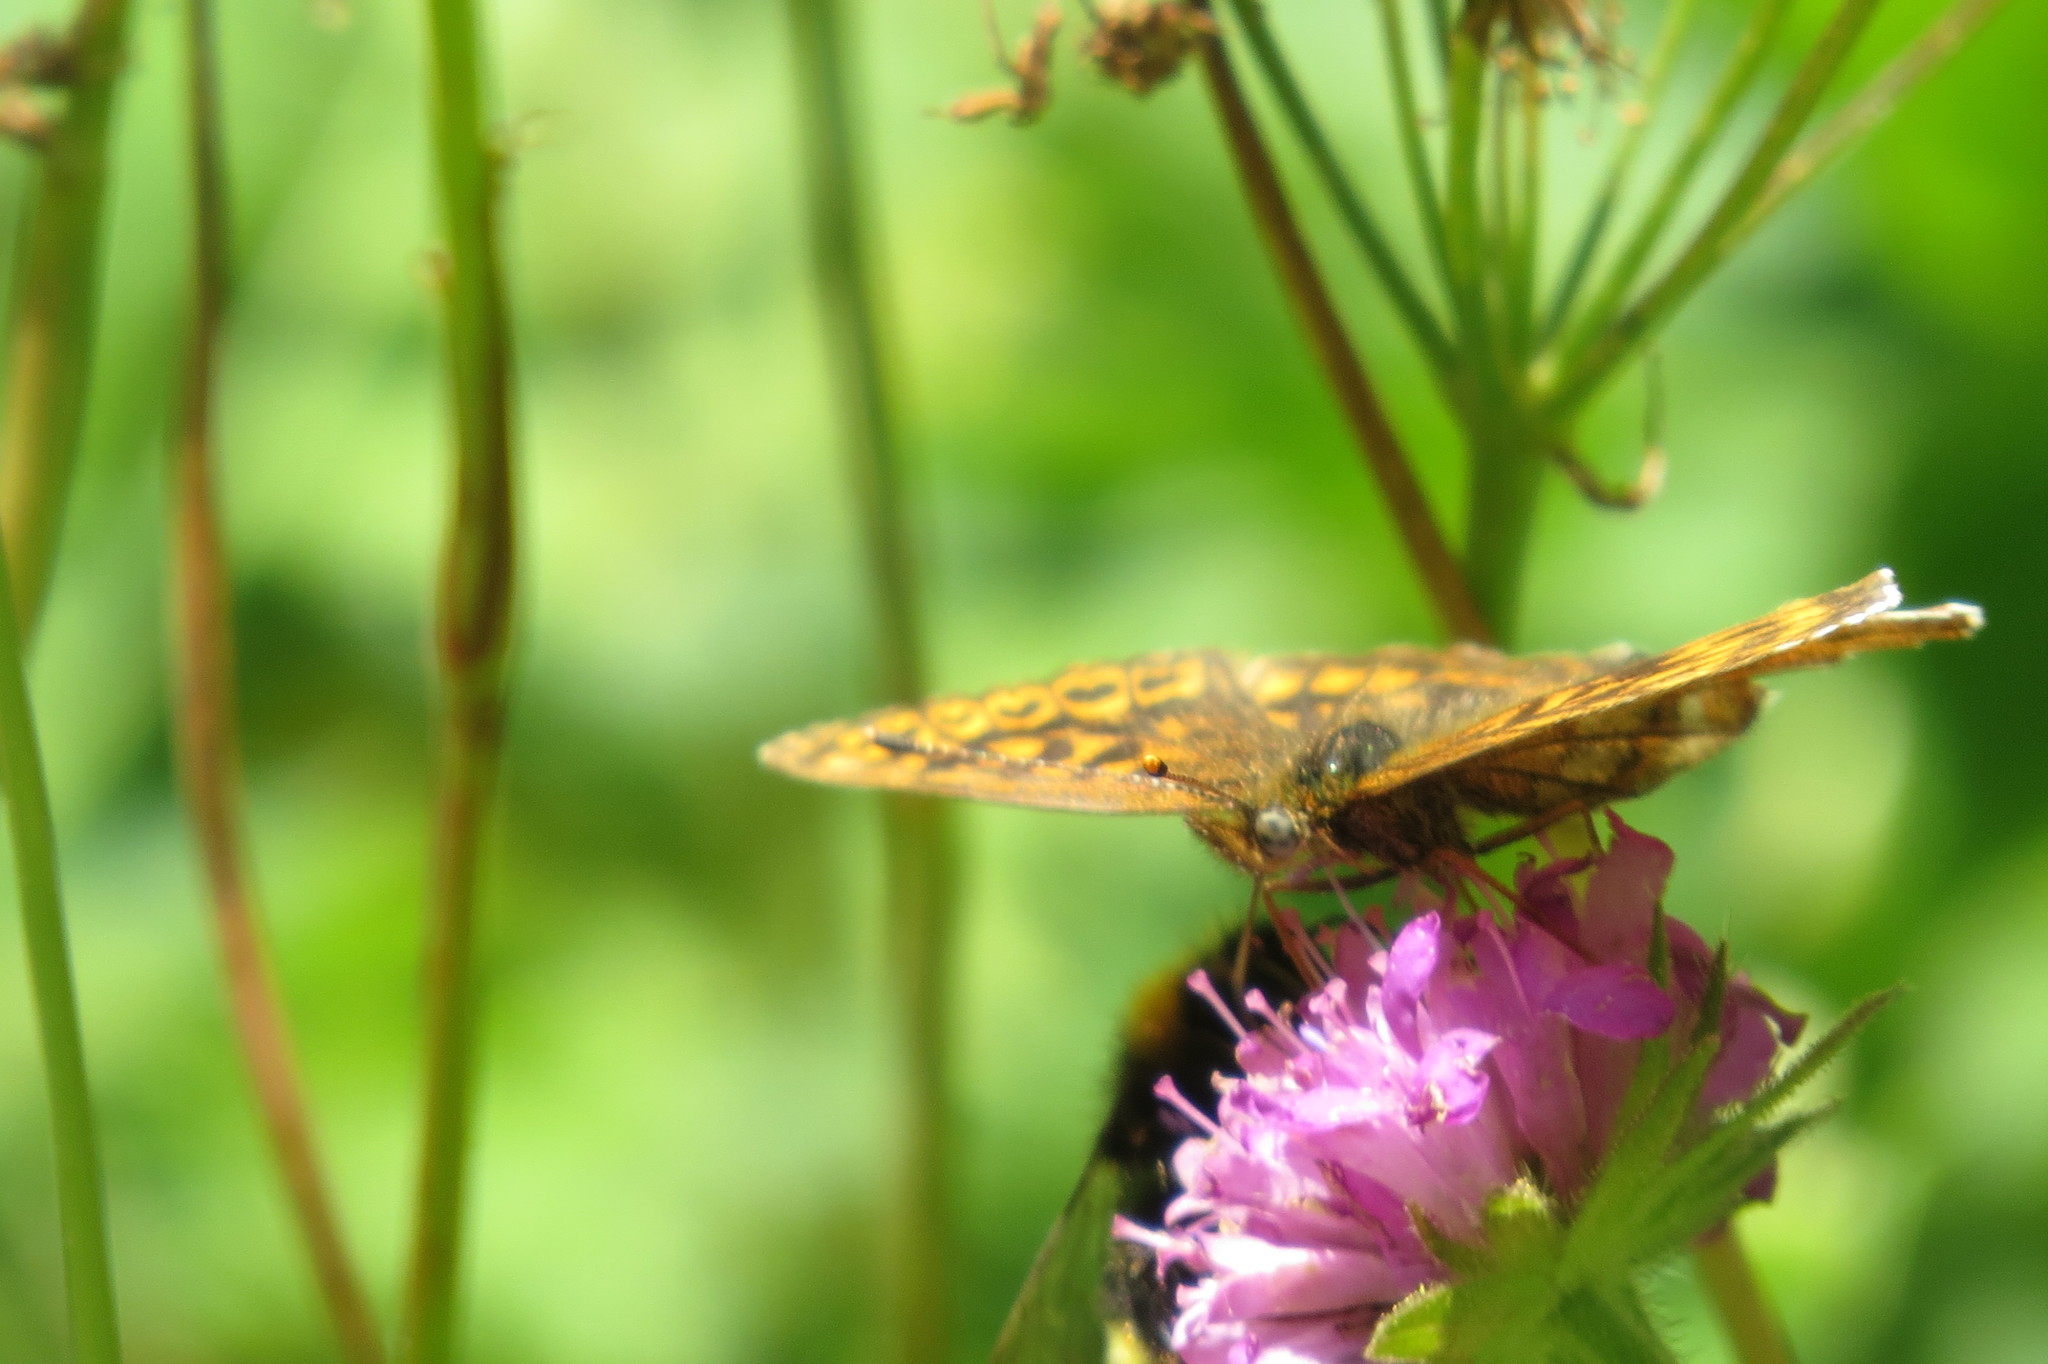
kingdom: Animalia
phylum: Arthropoda
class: Insecta
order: Lepidoptera
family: Nymphalidae
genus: Boloria
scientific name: Boloria thore
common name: Thor's fritillary
